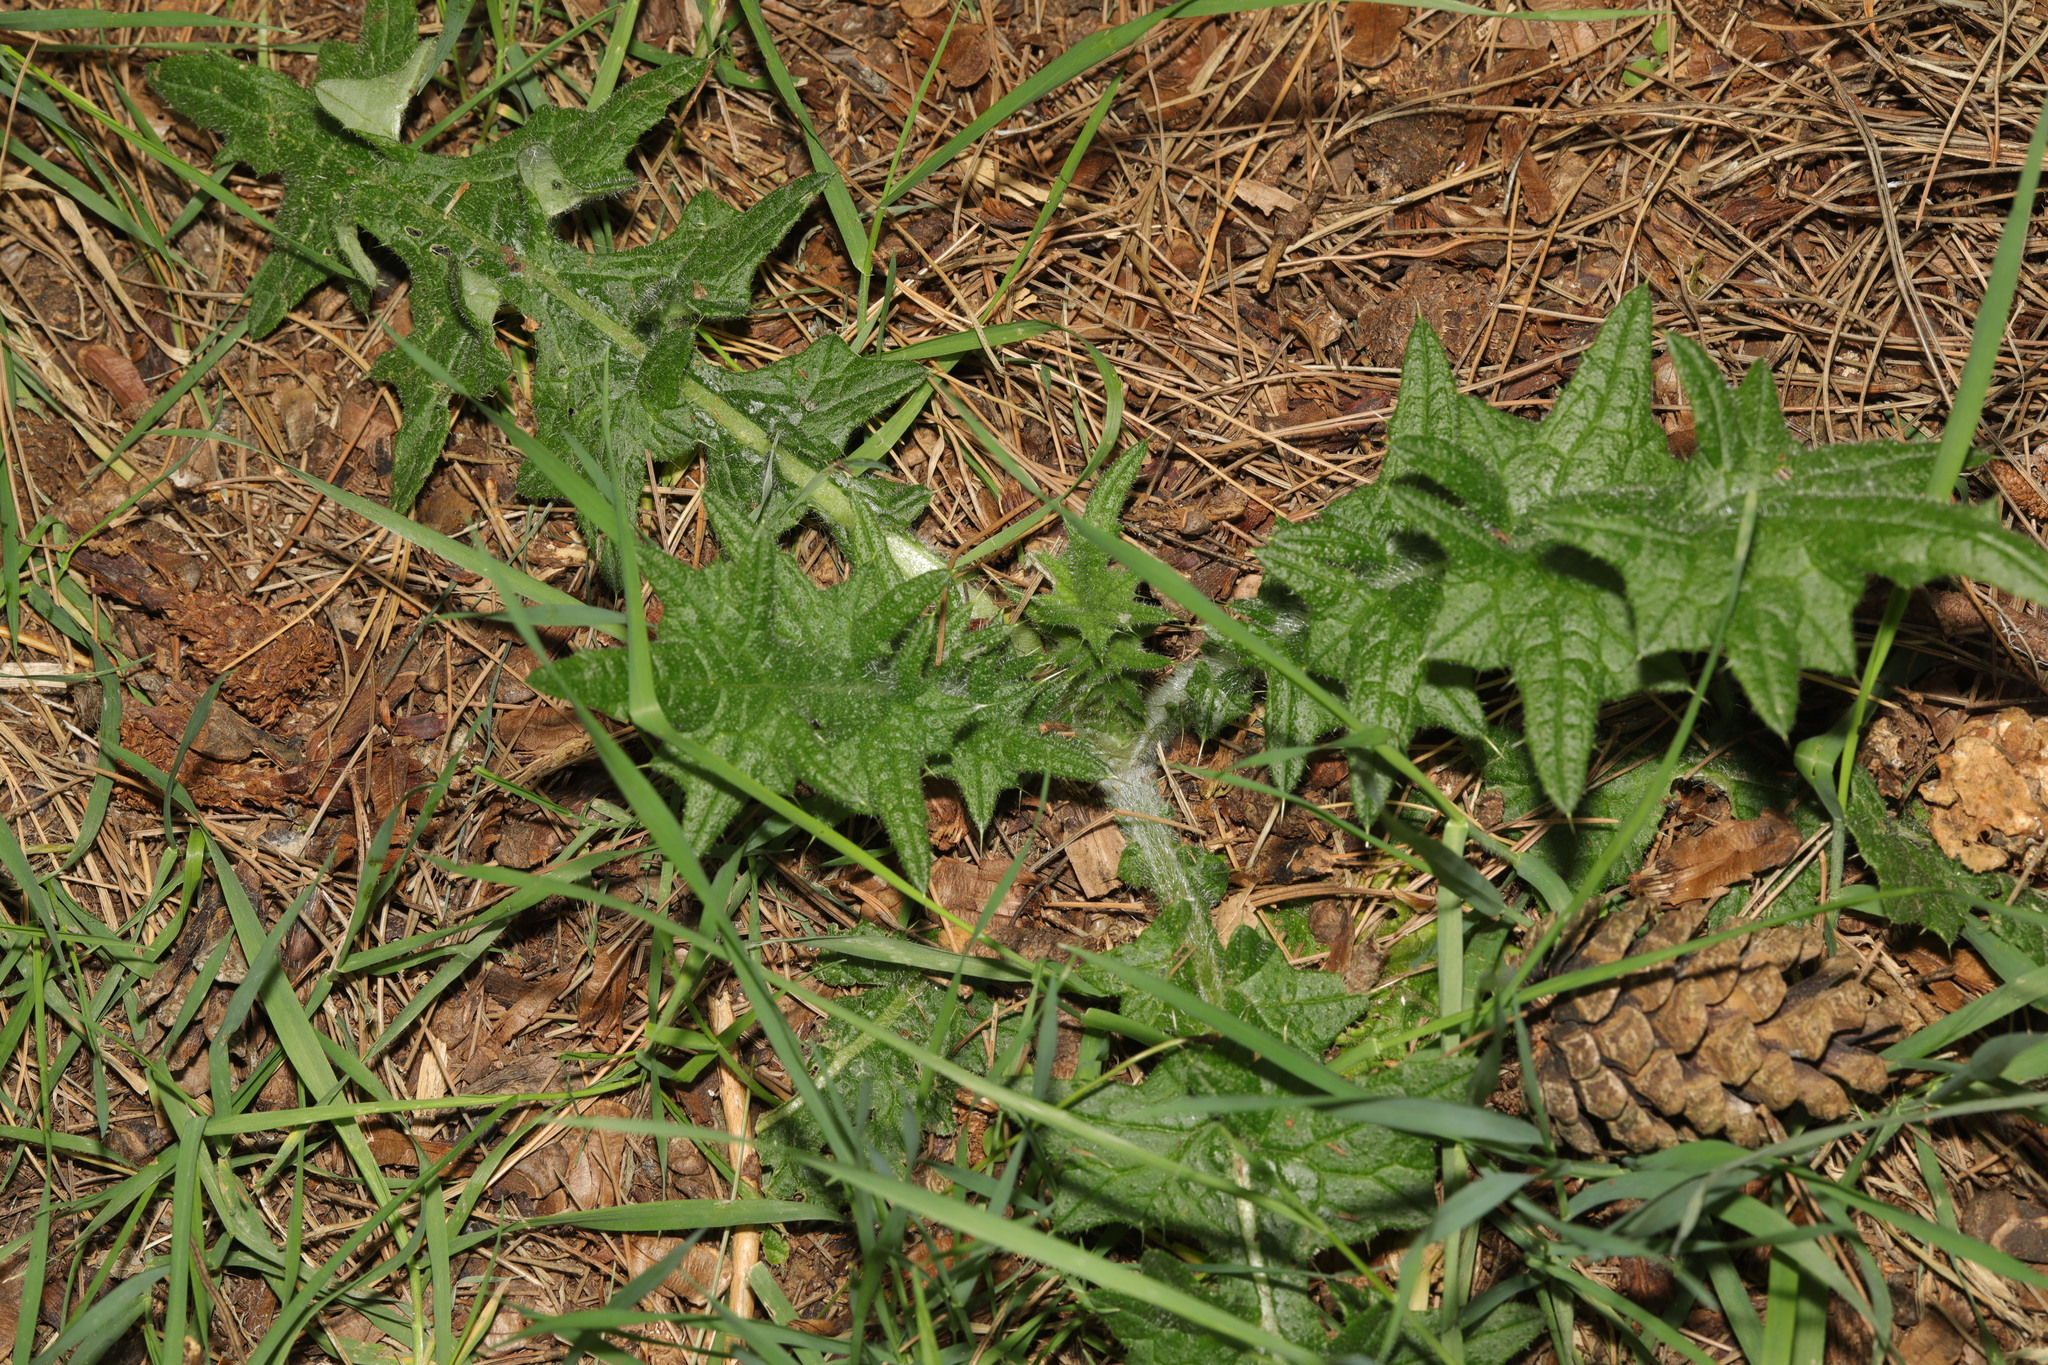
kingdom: Plantae
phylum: Tracheophyta
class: Magnoliopsida
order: Asterales
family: Asteraceae
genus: Cirsium
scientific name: Cirsium vulgare
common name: Bull thistle
